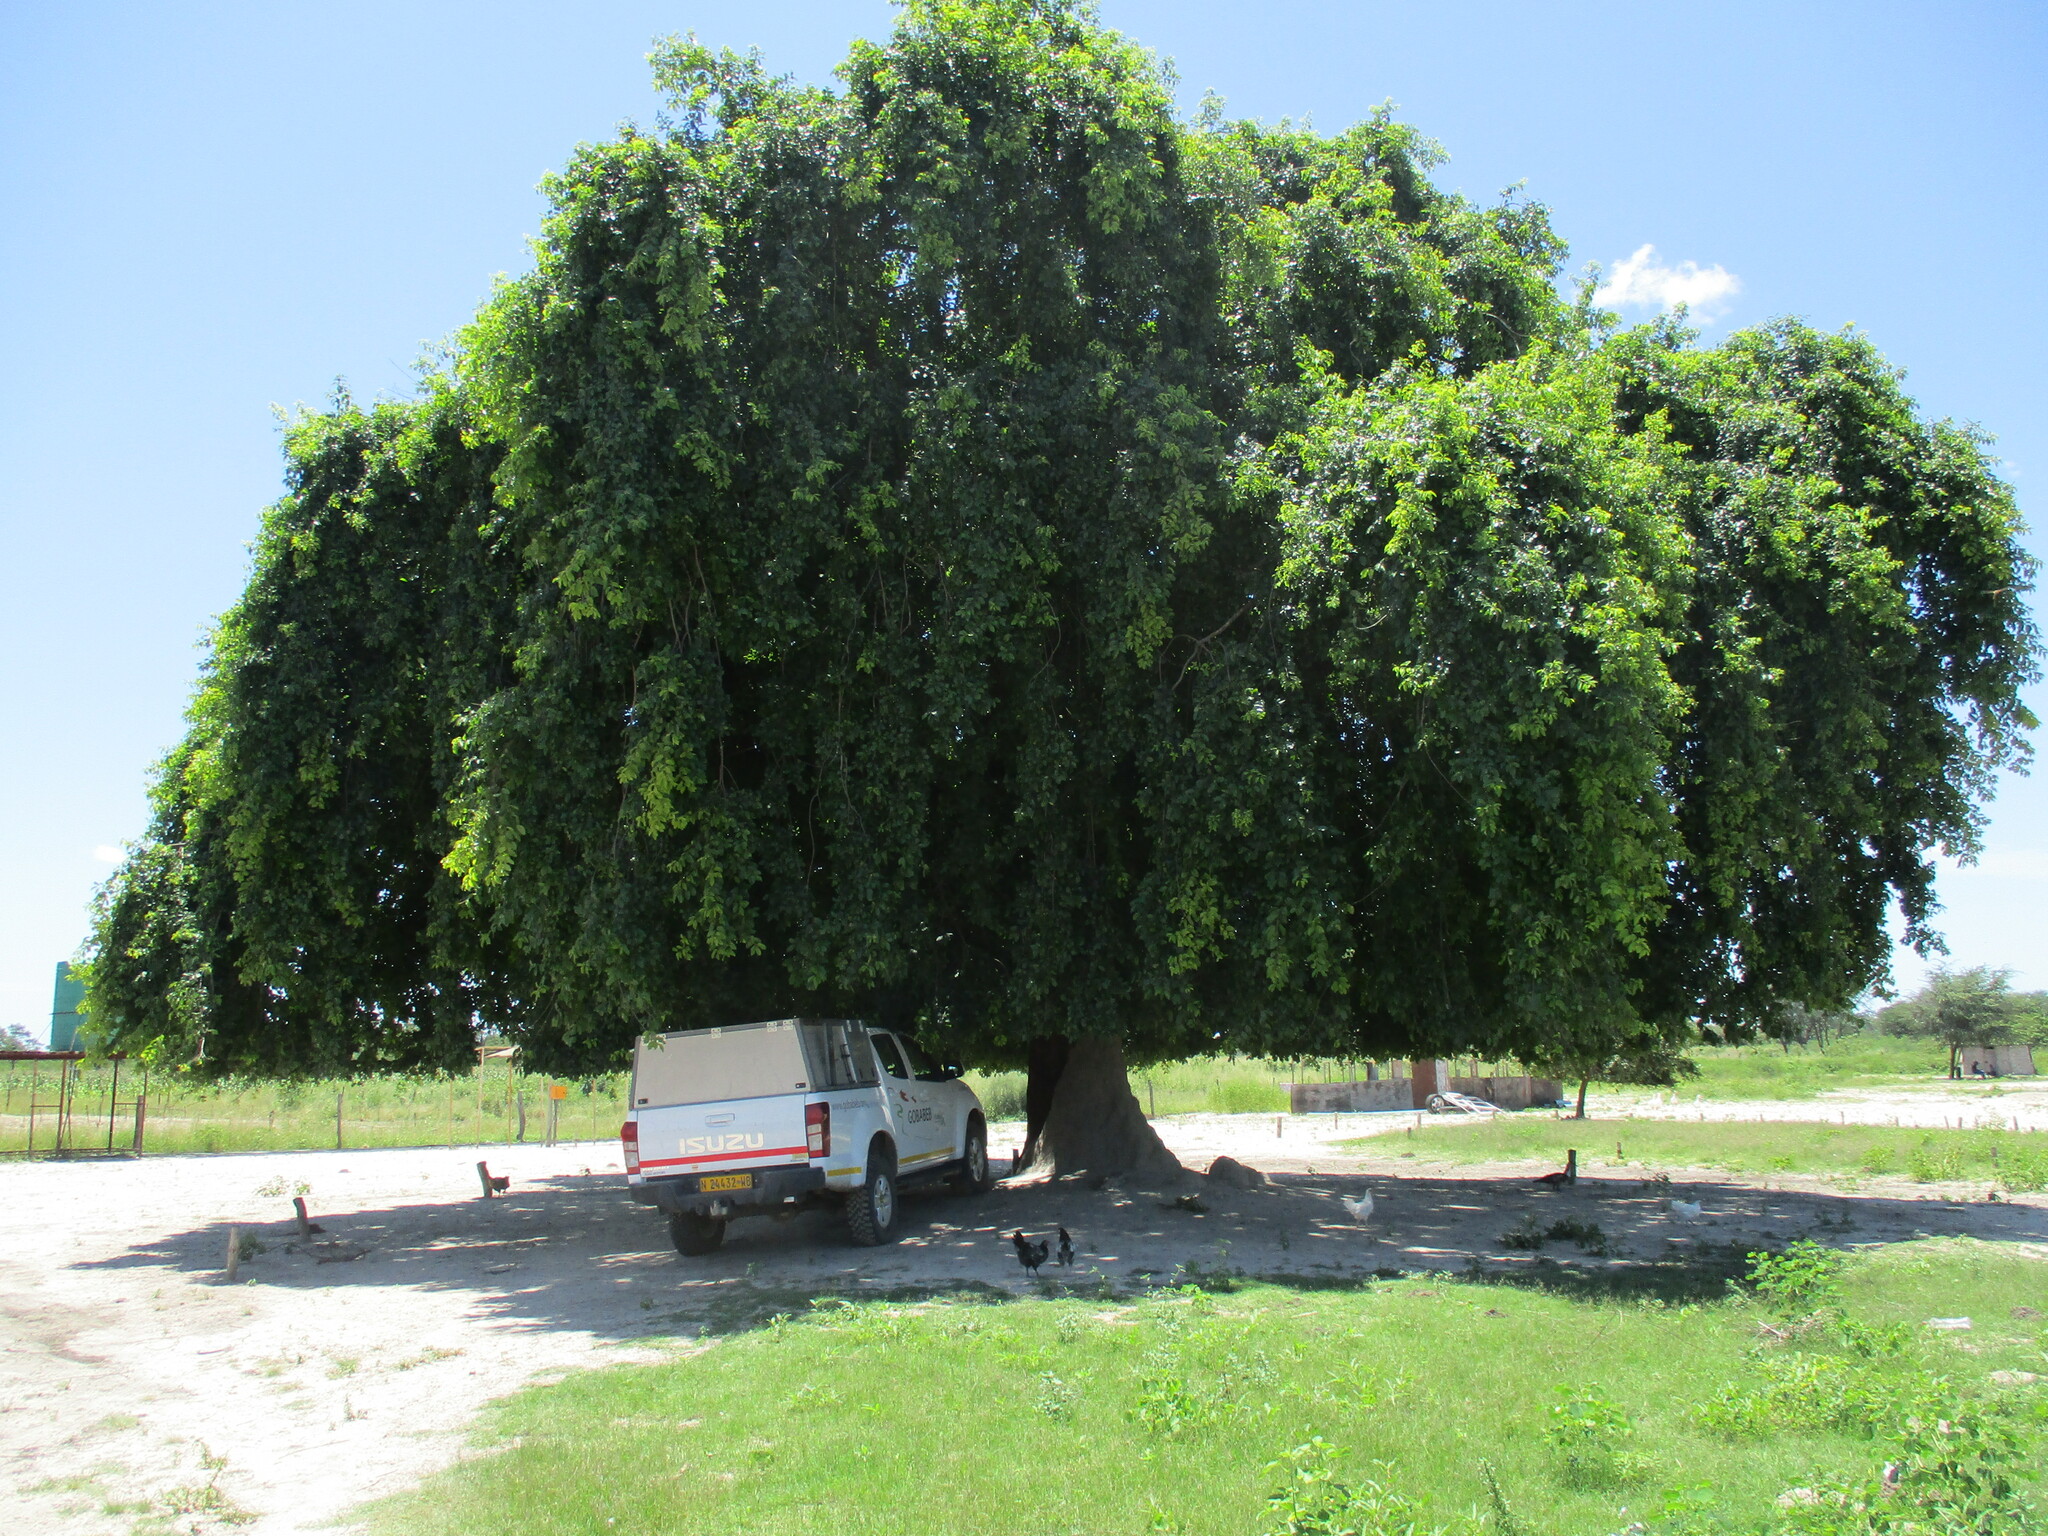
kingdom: Plantae
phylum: Tracheophyta
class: Magnoliopsida
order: Rosales
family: Rhamnaceae
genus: Phyllogeiton
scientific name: Phyllogeiton discolor
